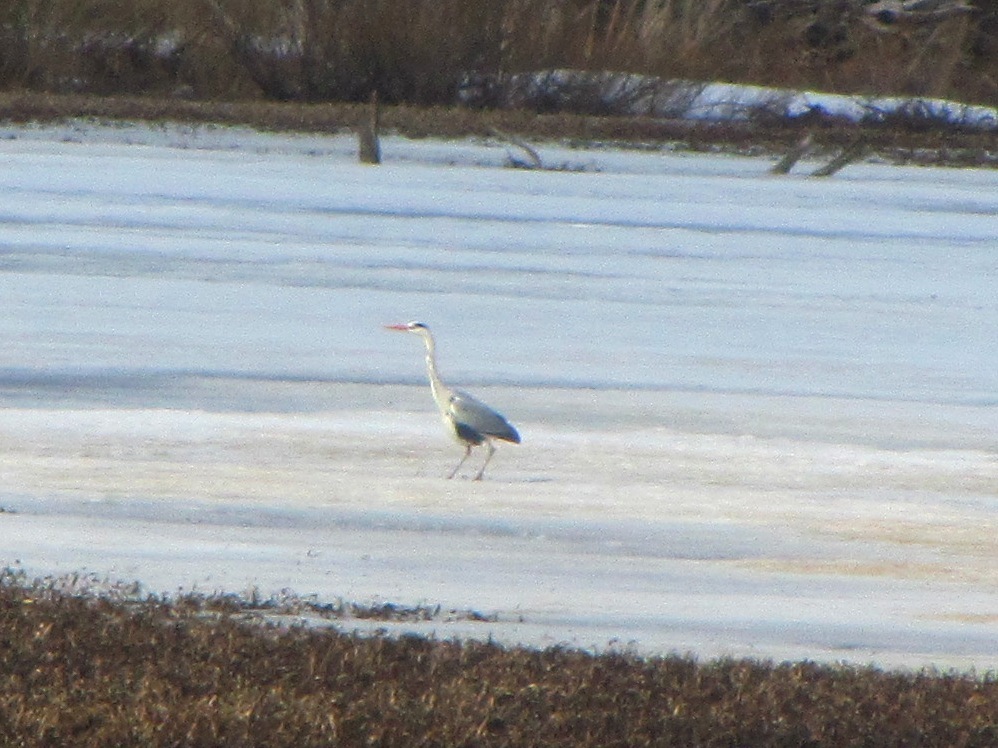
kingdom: Animalia
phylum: Chordata
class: Aves
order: Pelecaniformes
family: Ardeidae
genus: Ardea
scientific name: Ardea cinerea
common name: Grey heron
